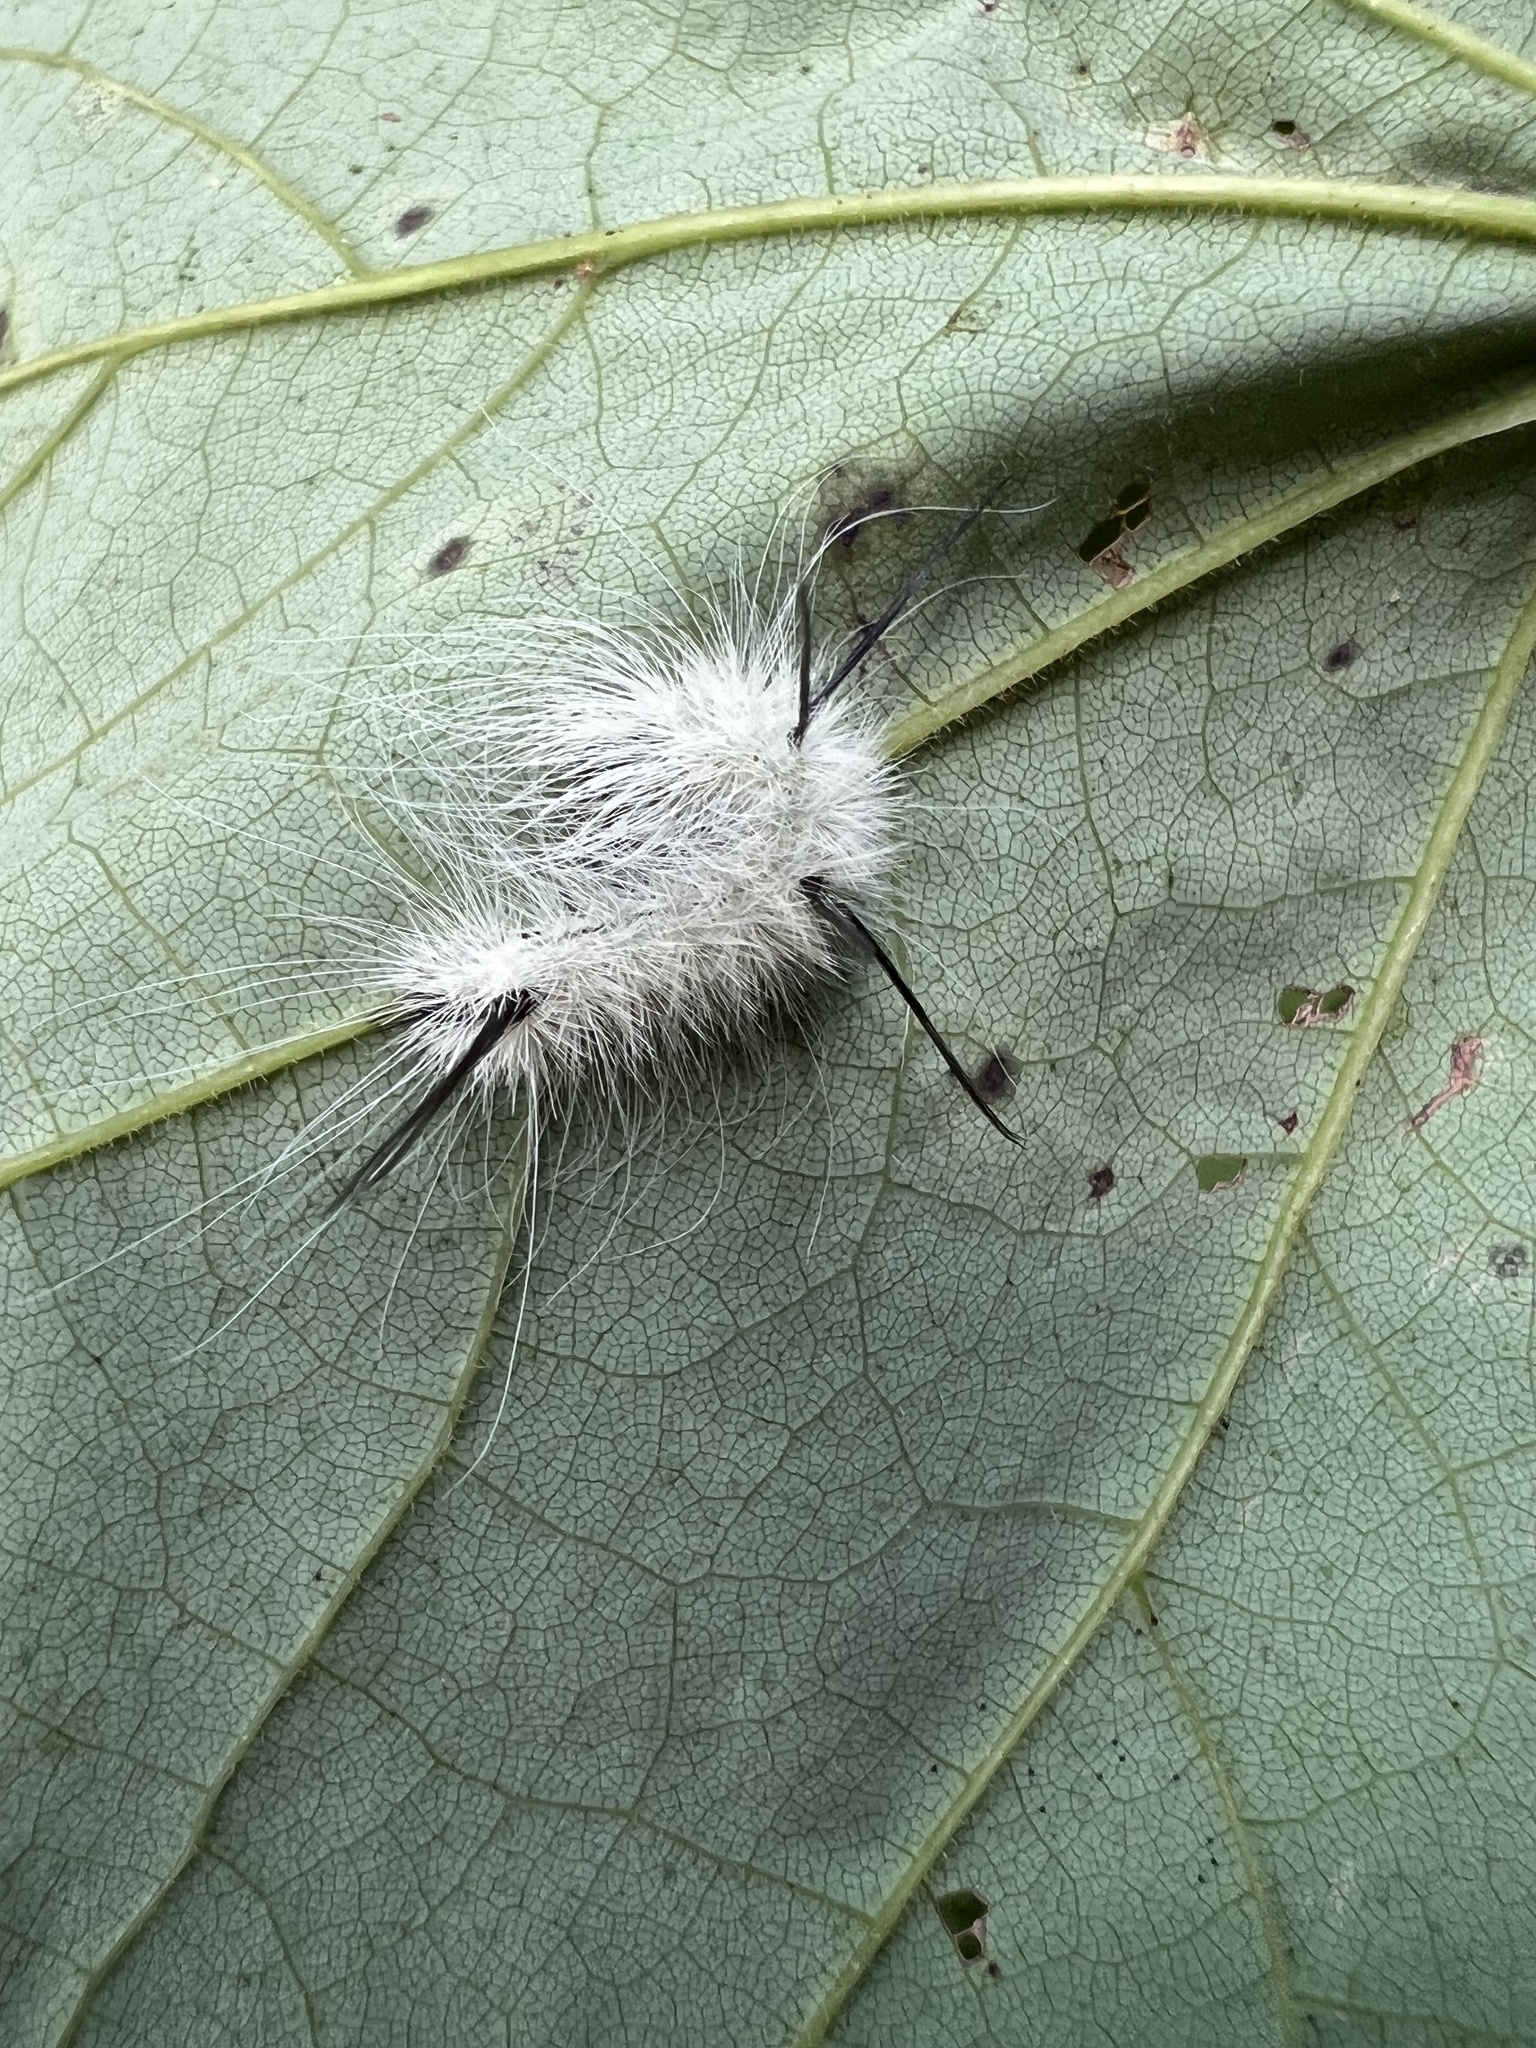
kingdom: Animalia
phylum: Arthropoda
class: Insecta
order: Lepidoptera
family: Noctuidae
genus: Acronicta
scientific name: Acronicta americana
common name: American dagger
